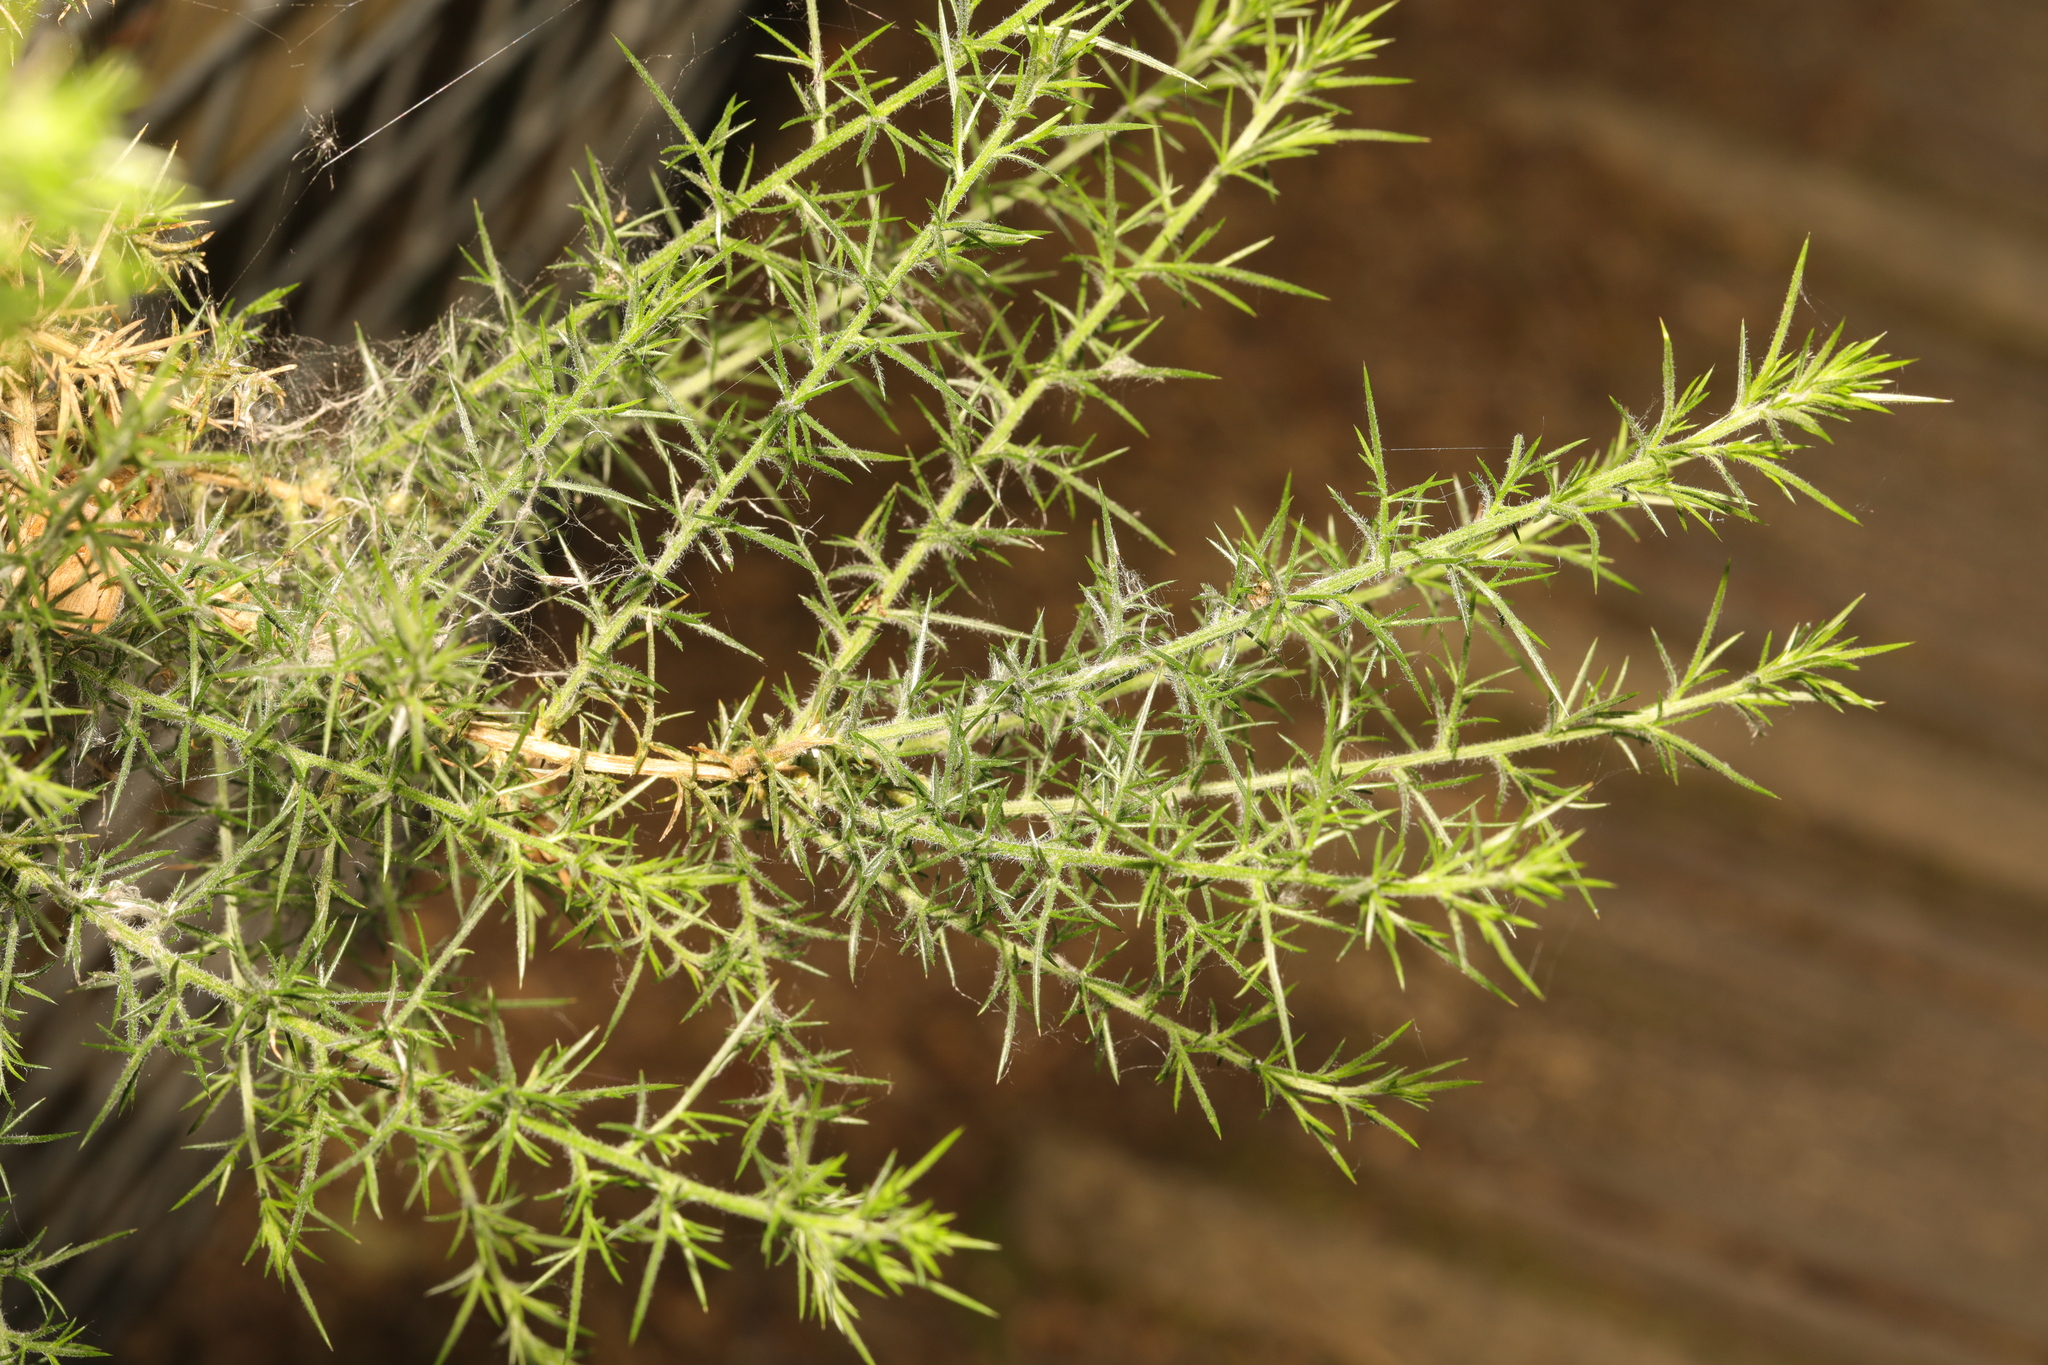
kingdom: Plantae
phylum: Tracheophyta
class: Magnoliopsida
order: Fabales
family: Fabaceae
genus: Ulex
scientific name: Ulex europaeus
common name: Common gorse
